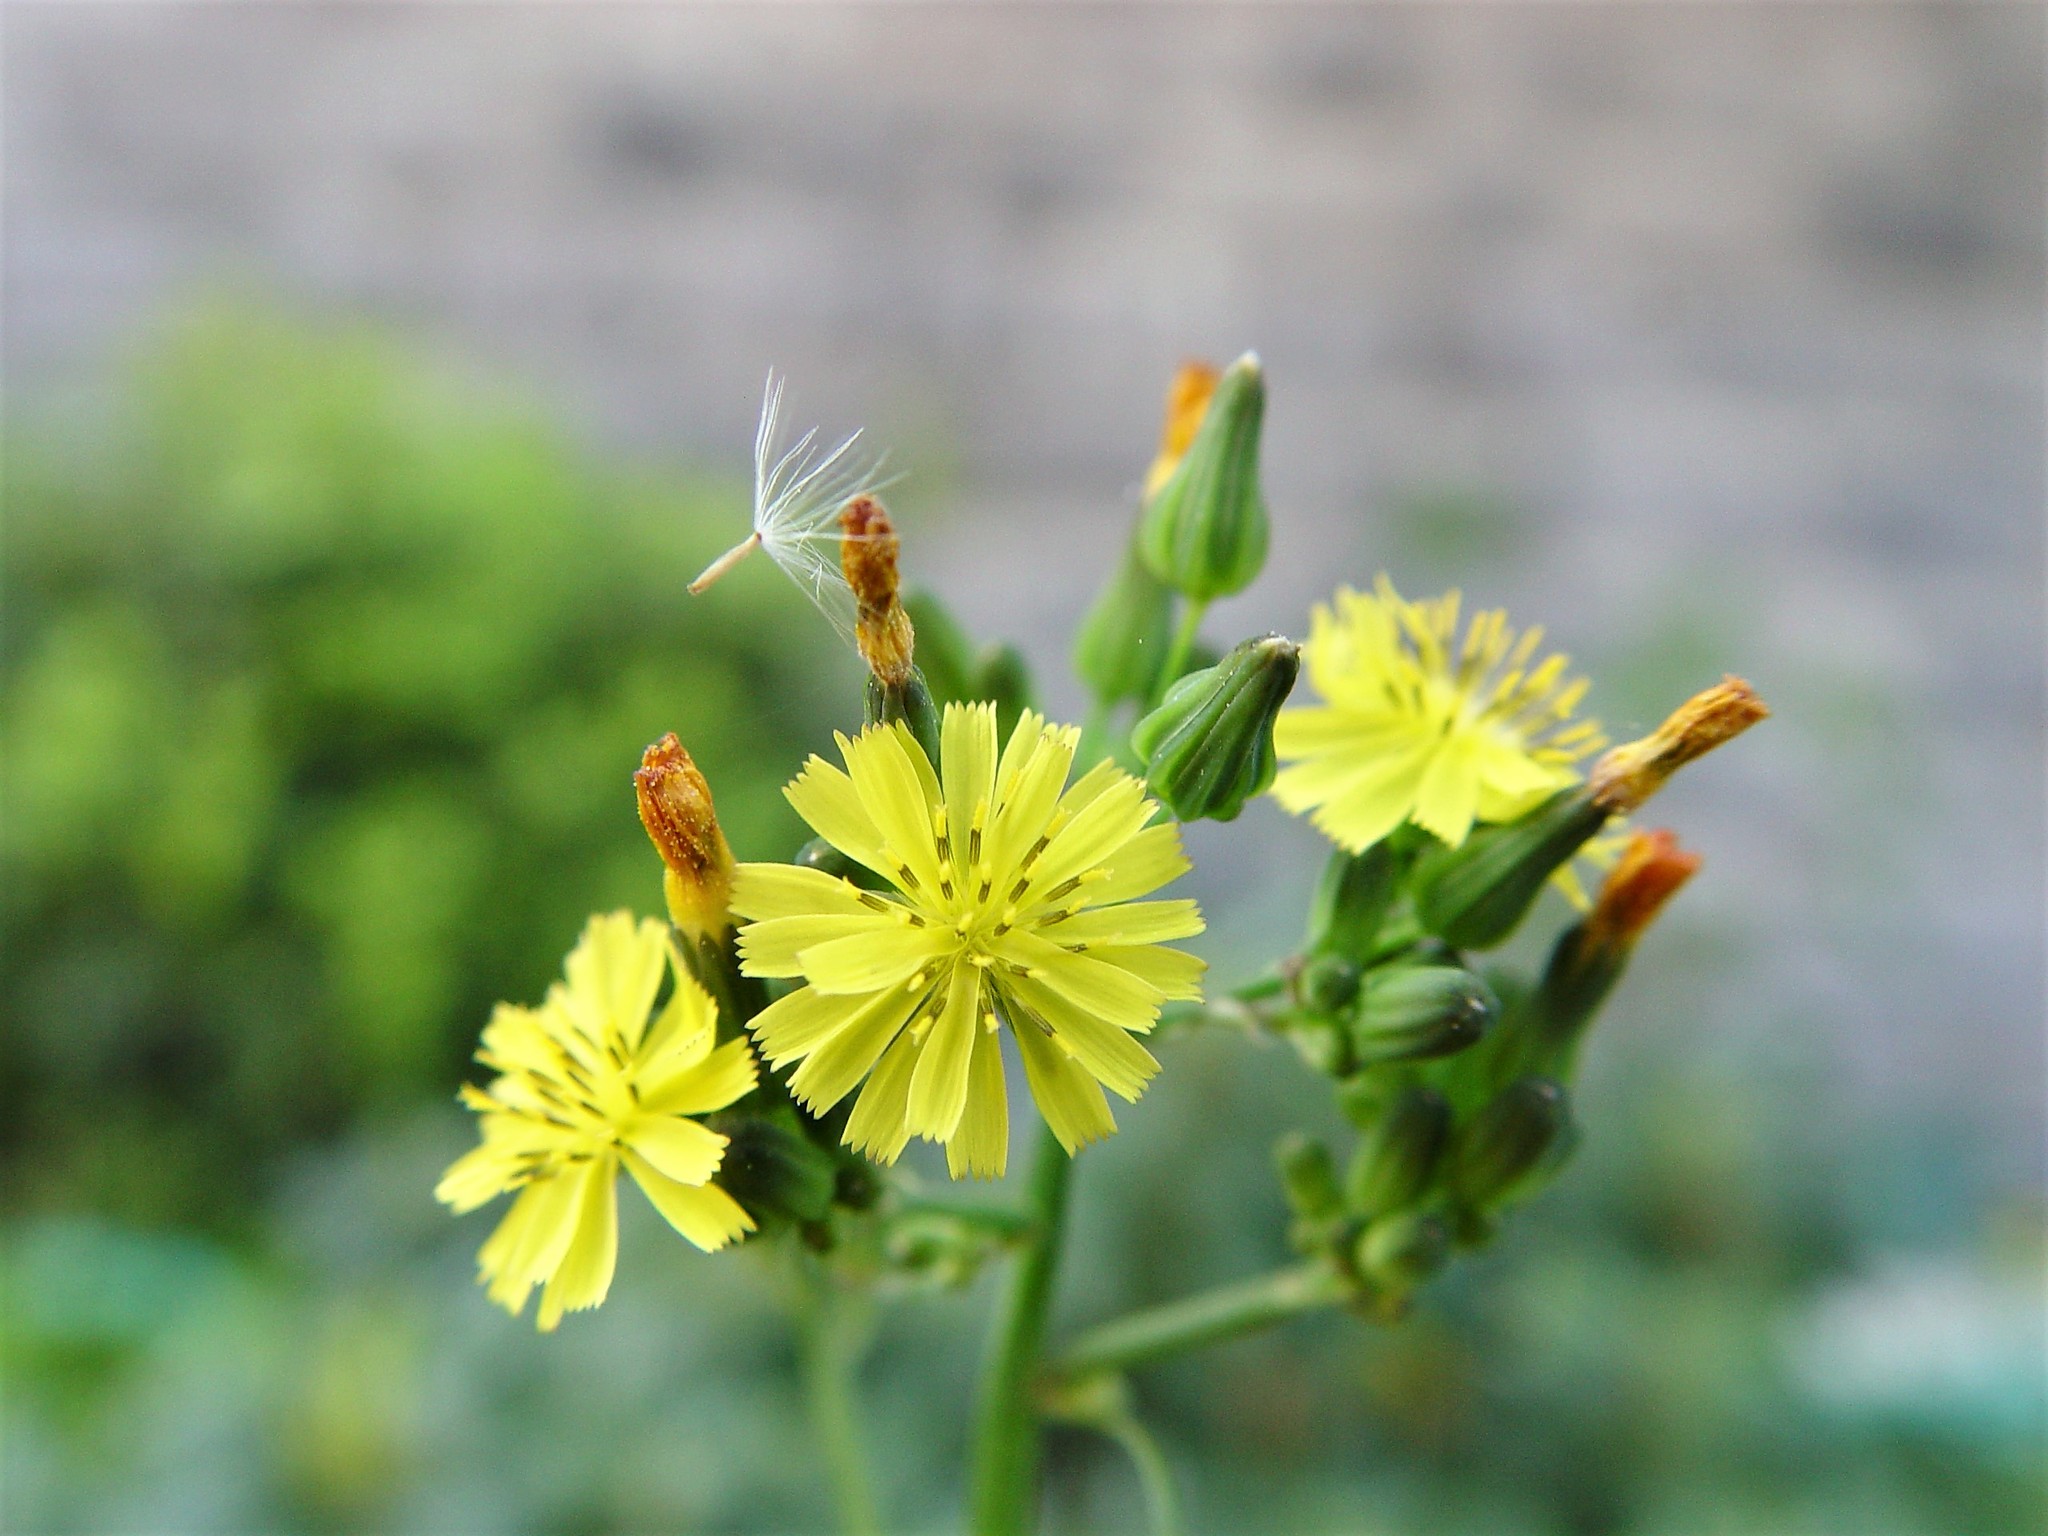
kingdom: Plantae
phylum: Tracheophyta
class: Magnoliopsida
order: Asterales
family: Asteraceae
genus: Youngia
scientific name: Youngia japonica
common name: Oriental false hawksbeard
